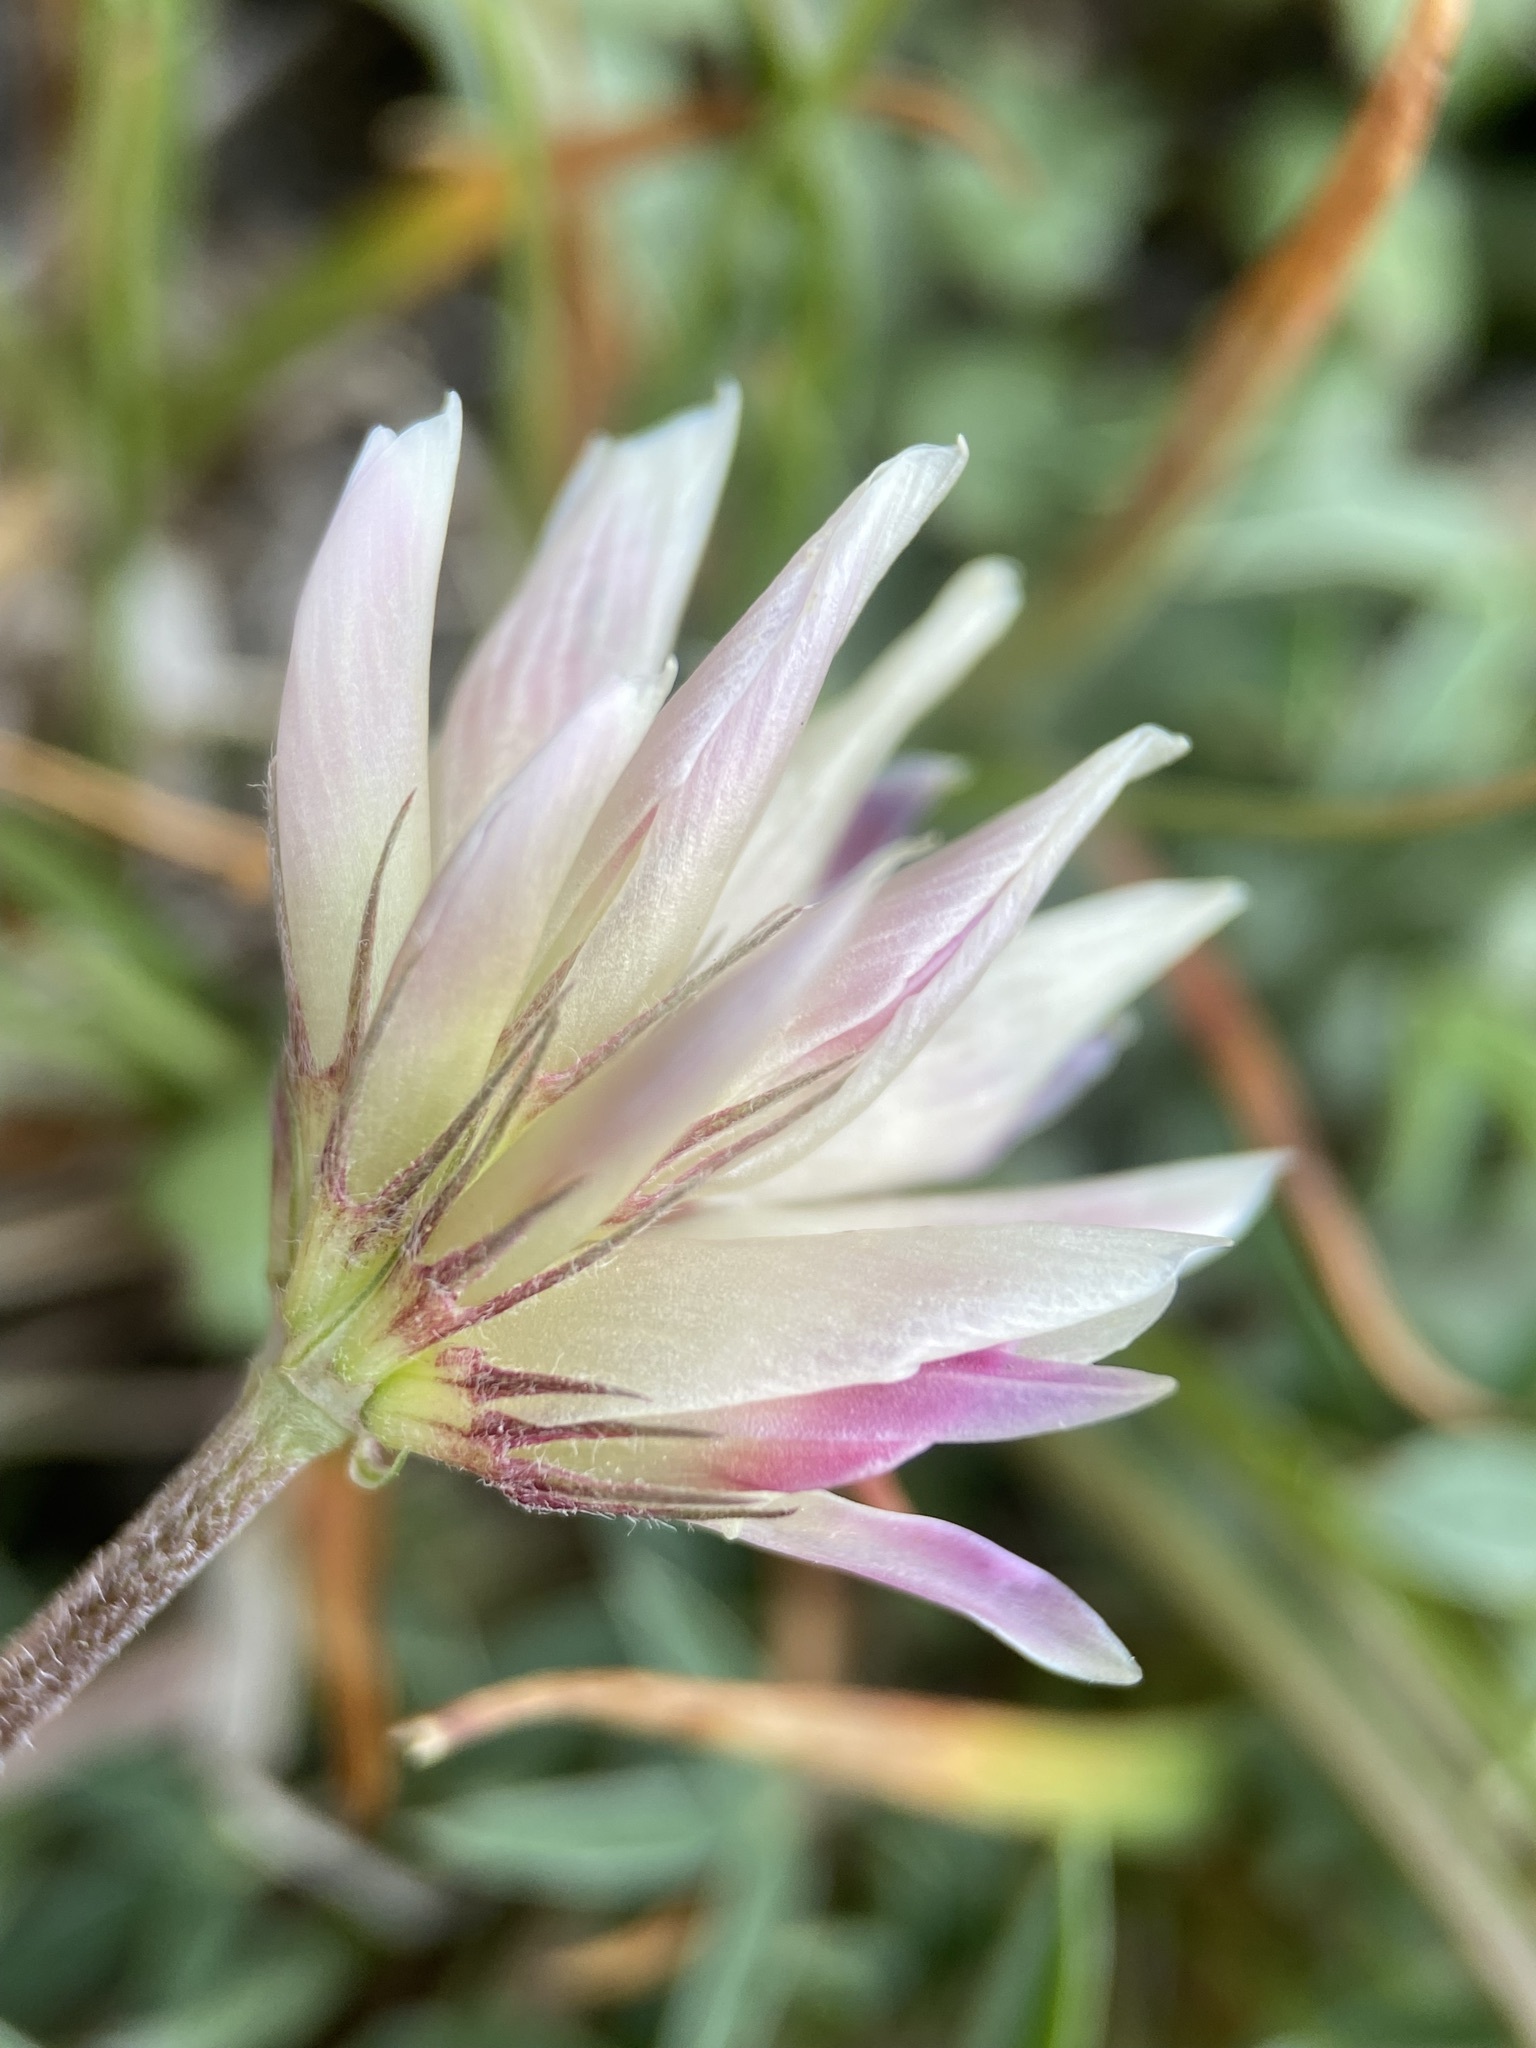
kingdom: Plantae
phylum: Tracheophyta
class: Magnoliopsida
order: Fabales
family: Fabaceae
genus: Trifolium
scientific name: Trifolium dasyphyllum
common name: Whip-root clover
